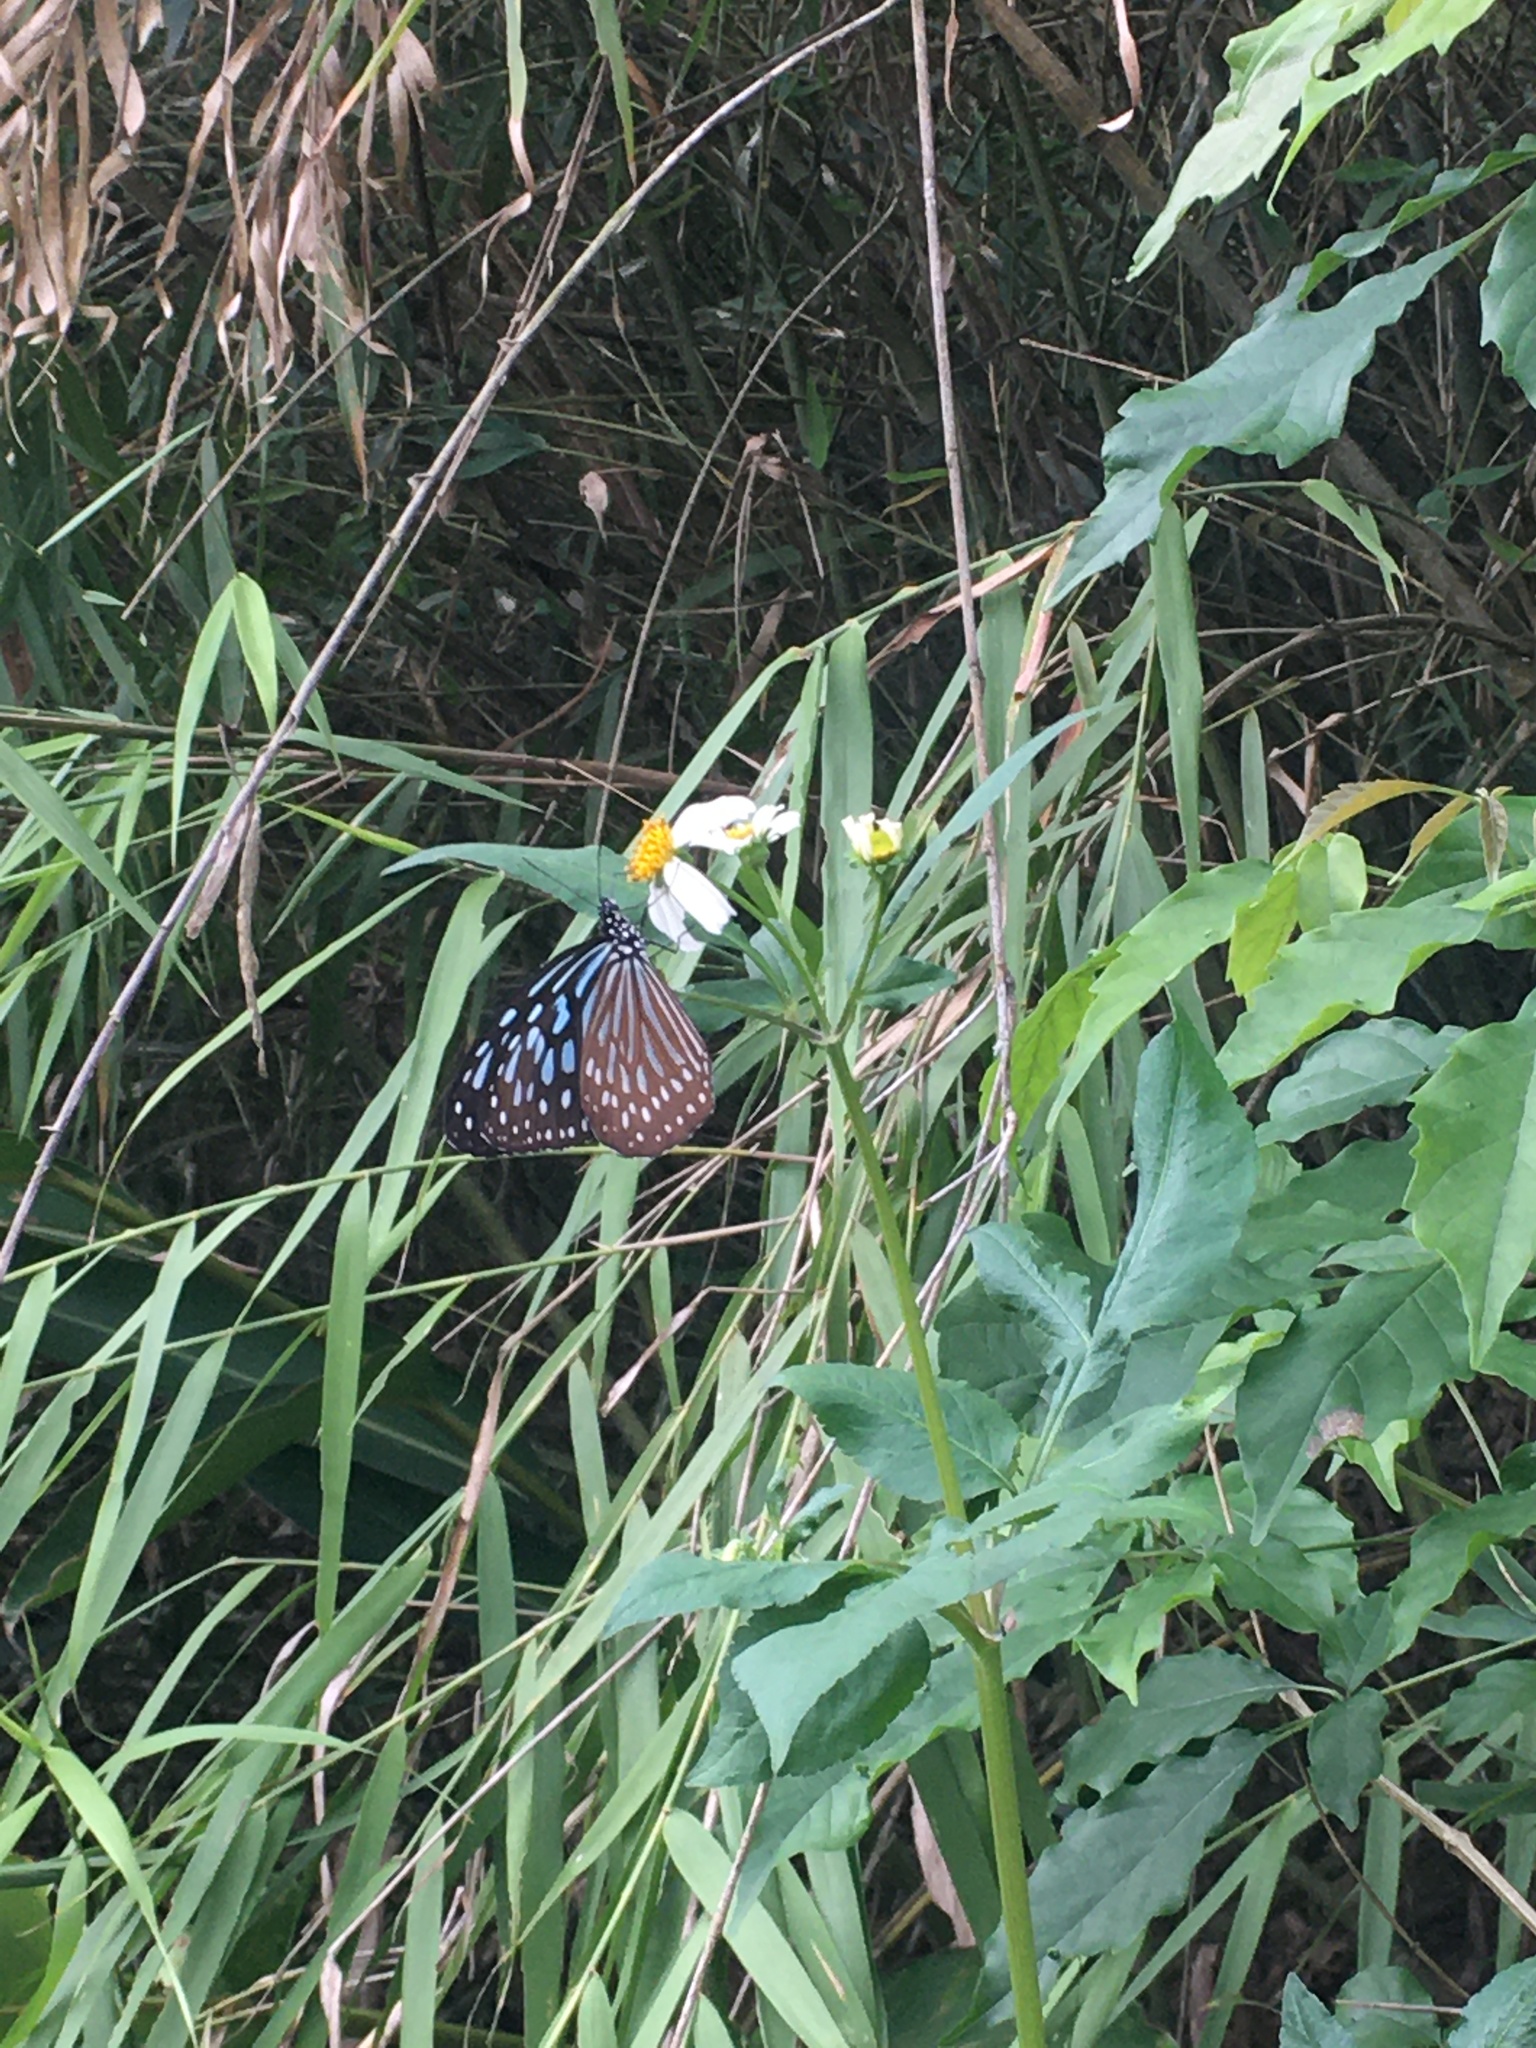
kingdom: Animalia
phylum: Arthropoda
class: Insecta
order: Lepidoptera
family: Nymphalidae
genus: Ideopsis
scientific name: Ideopsis similis
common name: Ceylon blue glassy tiger
